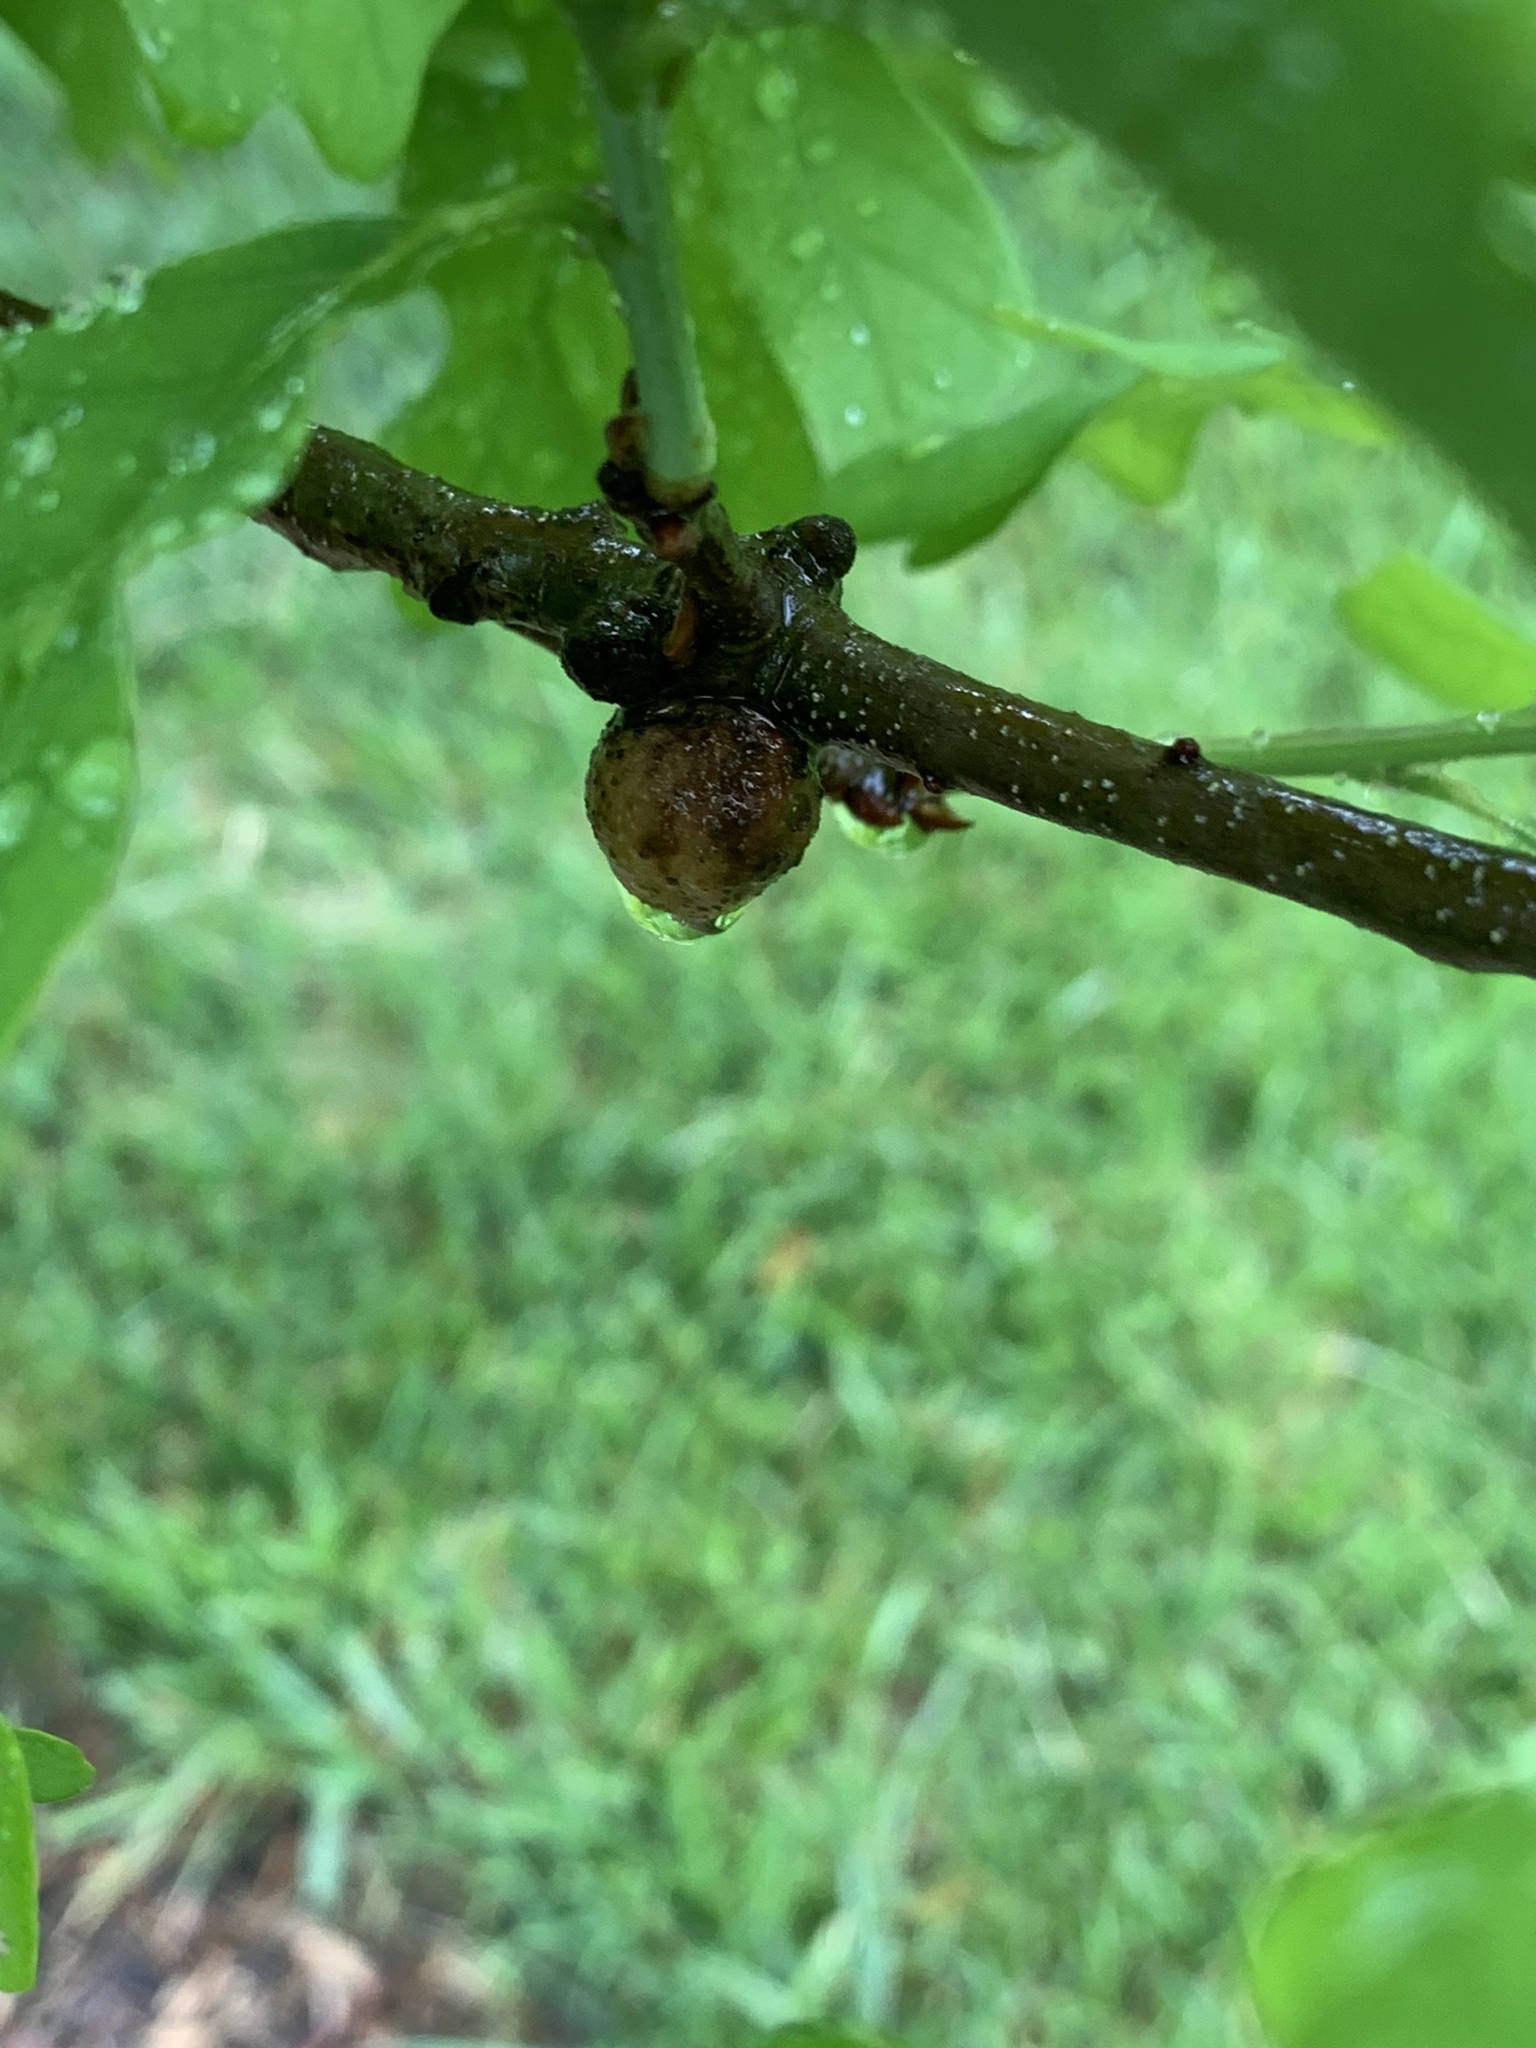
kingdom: Animalia
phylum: Arthropoda
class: Insecta
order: Hymenoptera
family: Cynipidae
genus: Disholcaspis
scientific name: Disholcaspis quercusglobulus
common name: Round bullet gall wasp
